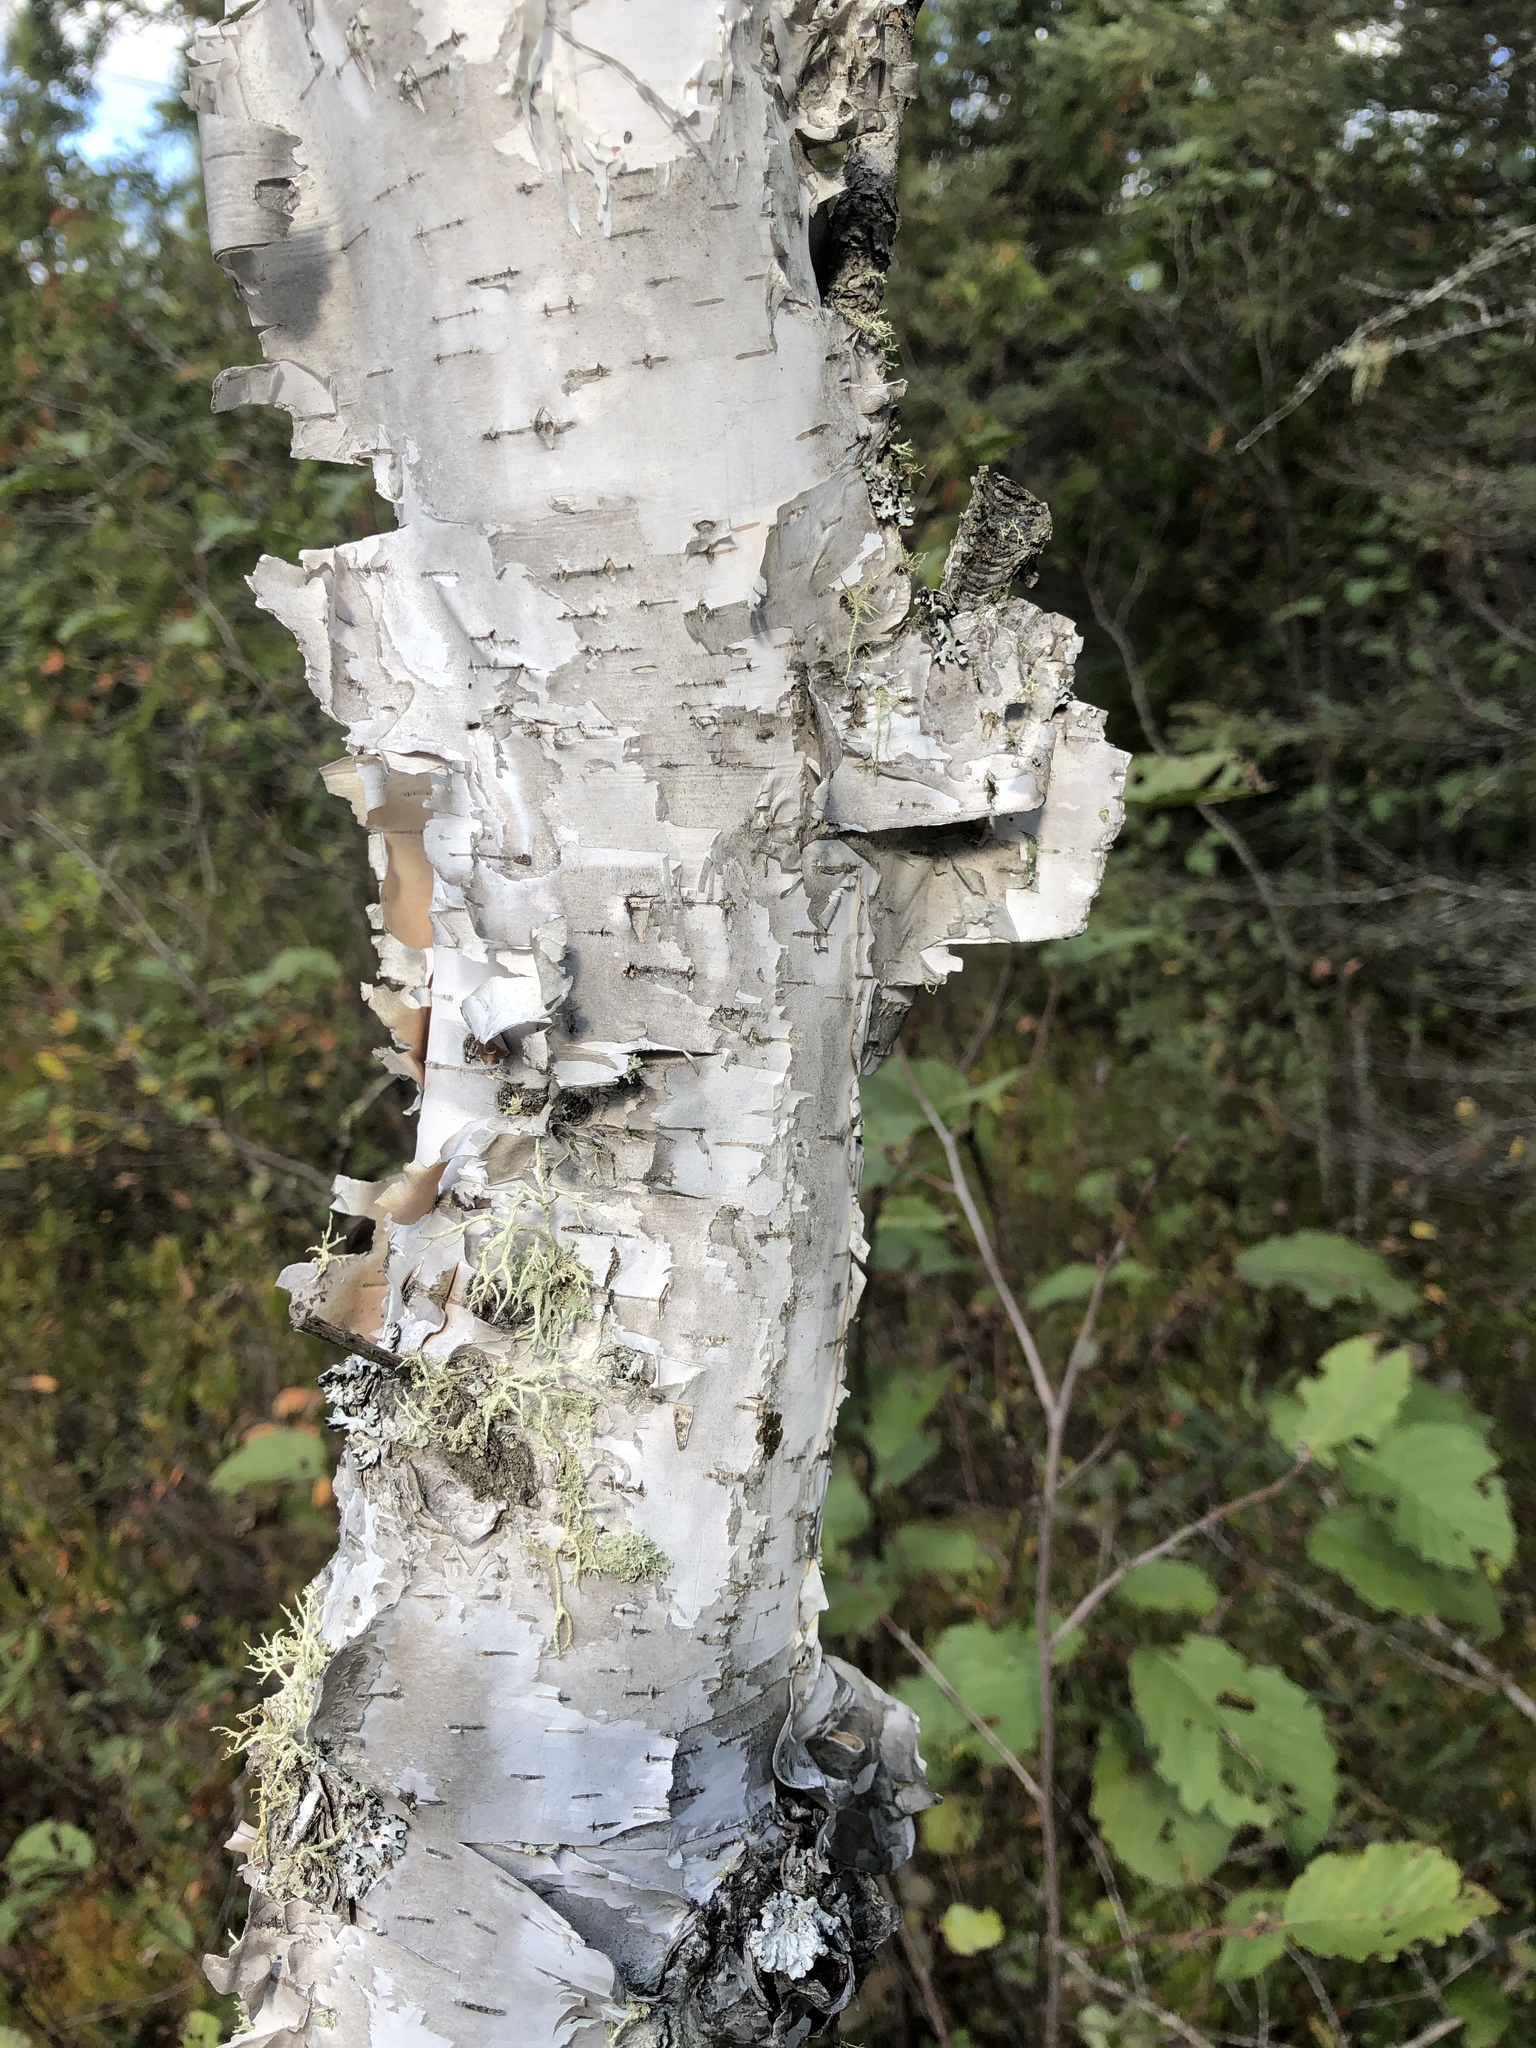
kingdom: Plantae
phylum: Tracheophyta
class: Magnoliopsida
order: Fagales
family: Betulaceae
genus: Betula
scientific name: Betula papyrifera
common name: Paper birch
